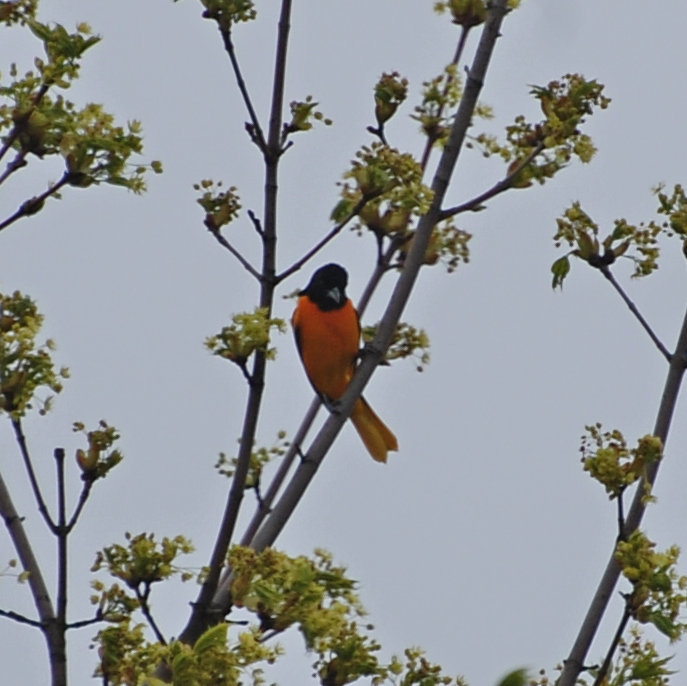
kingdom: Animalia
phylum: Chordata
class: Aves
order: Passeriformes
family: Icteridae
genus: Icterus
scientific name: Icterus galbula
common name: Baltimore oriole
